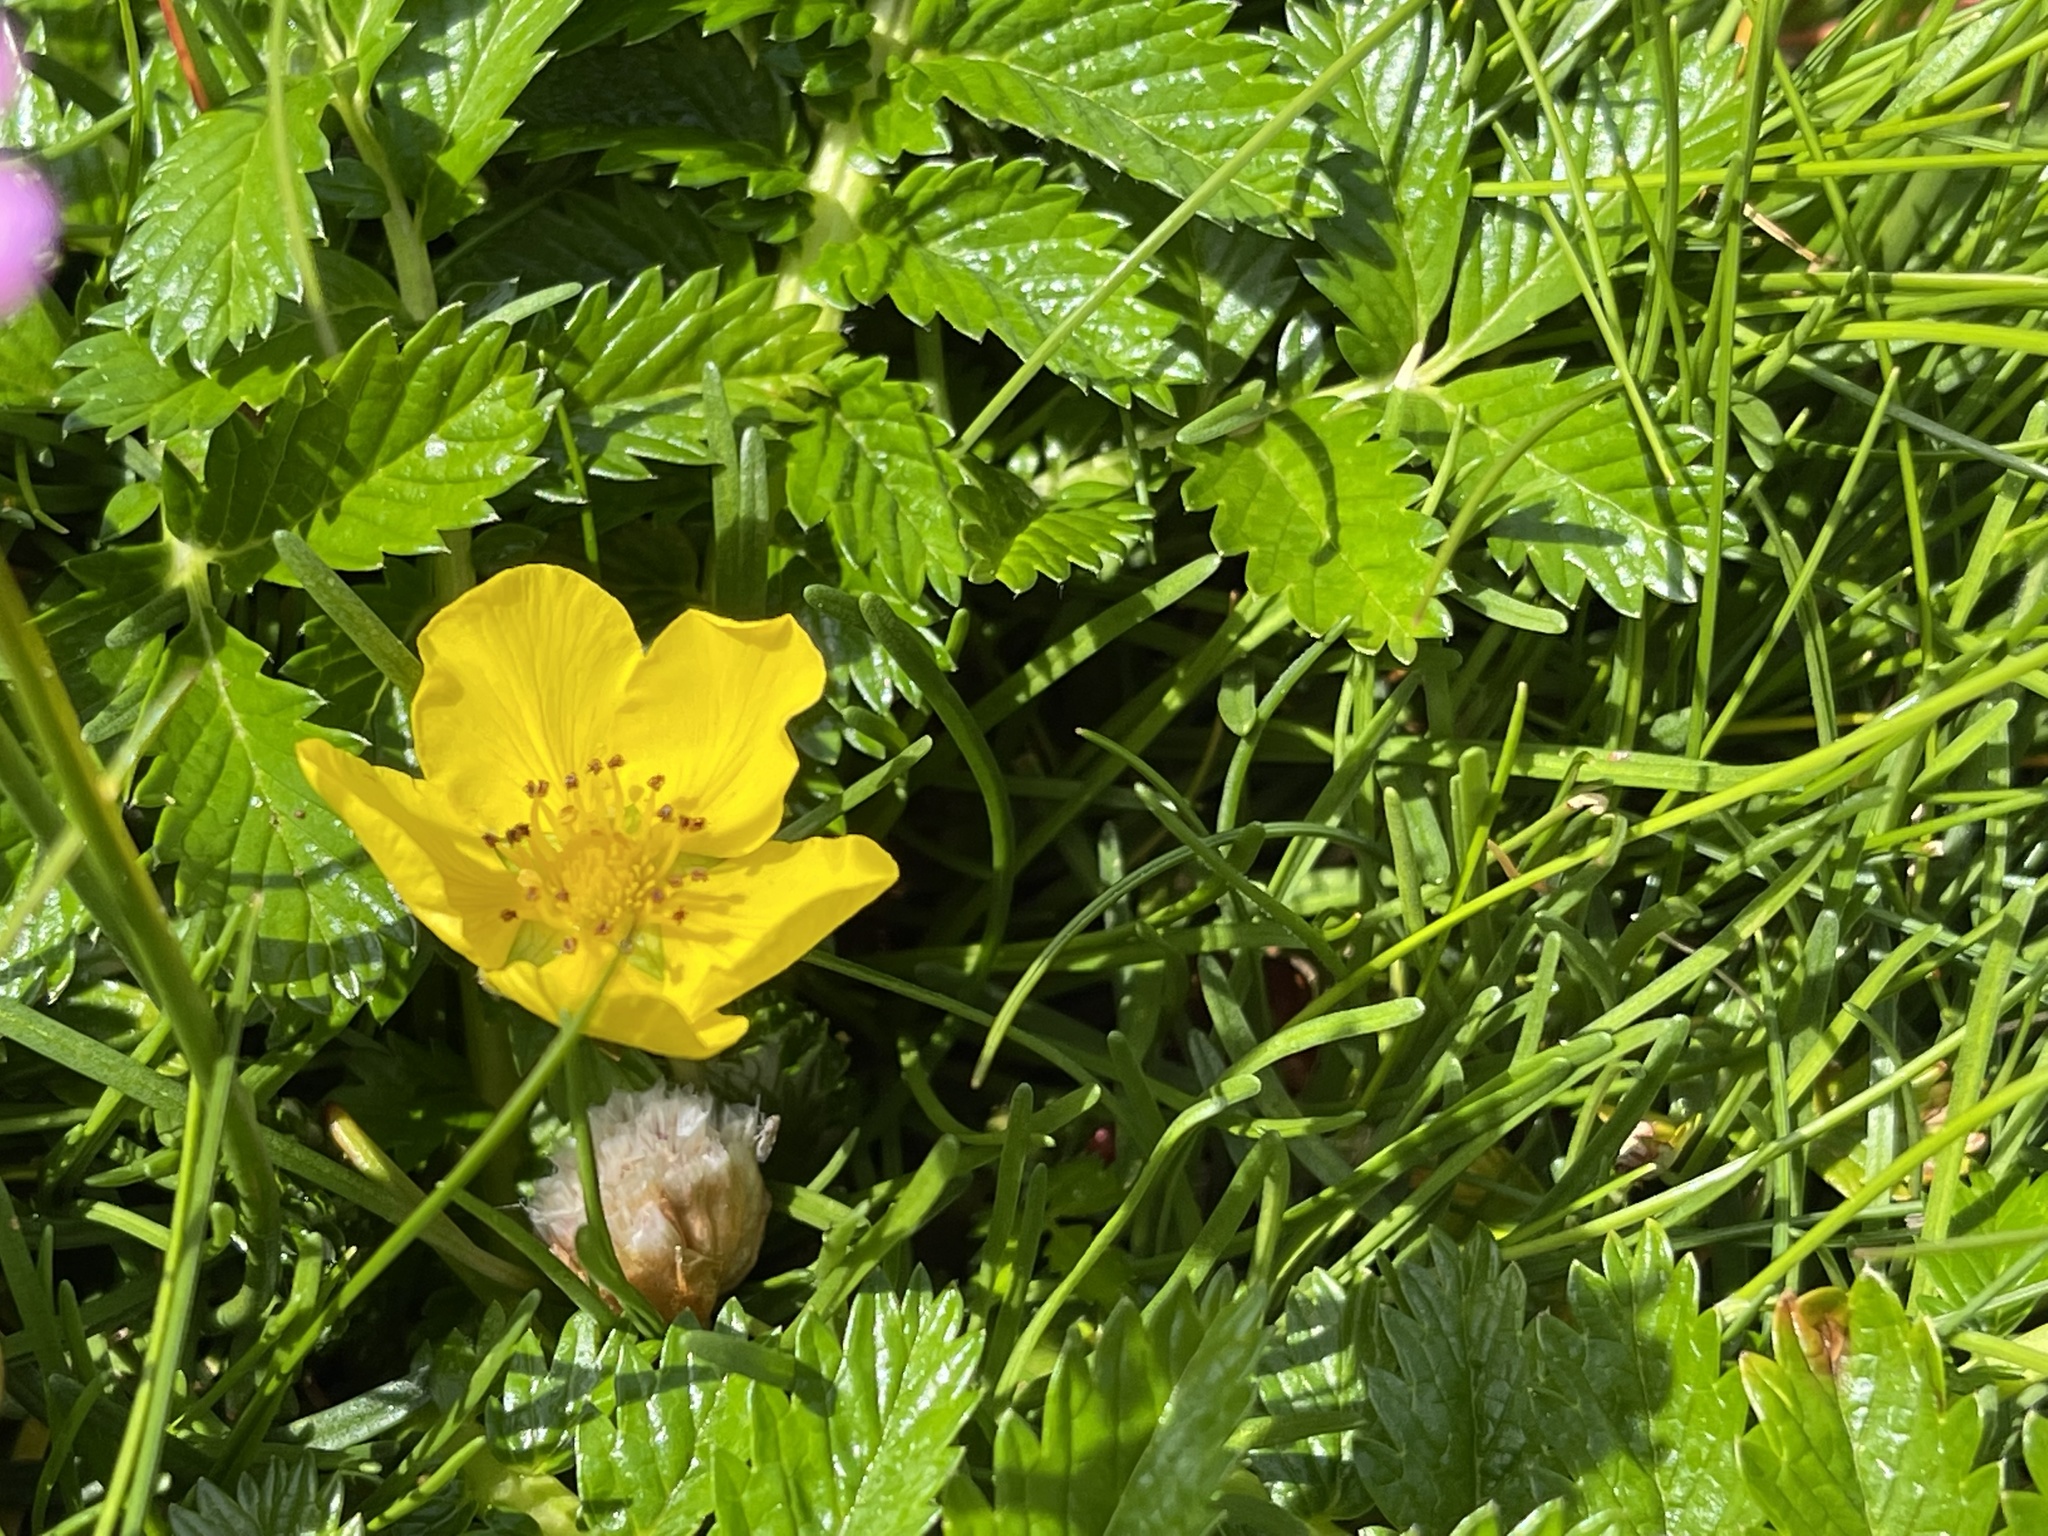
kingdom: Plantae
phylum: Tracheophyta
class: Magnoliopsida
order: Rosales
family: Rosaceae
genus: Argentina
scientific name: Argentina anserina
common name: Common silverweed
